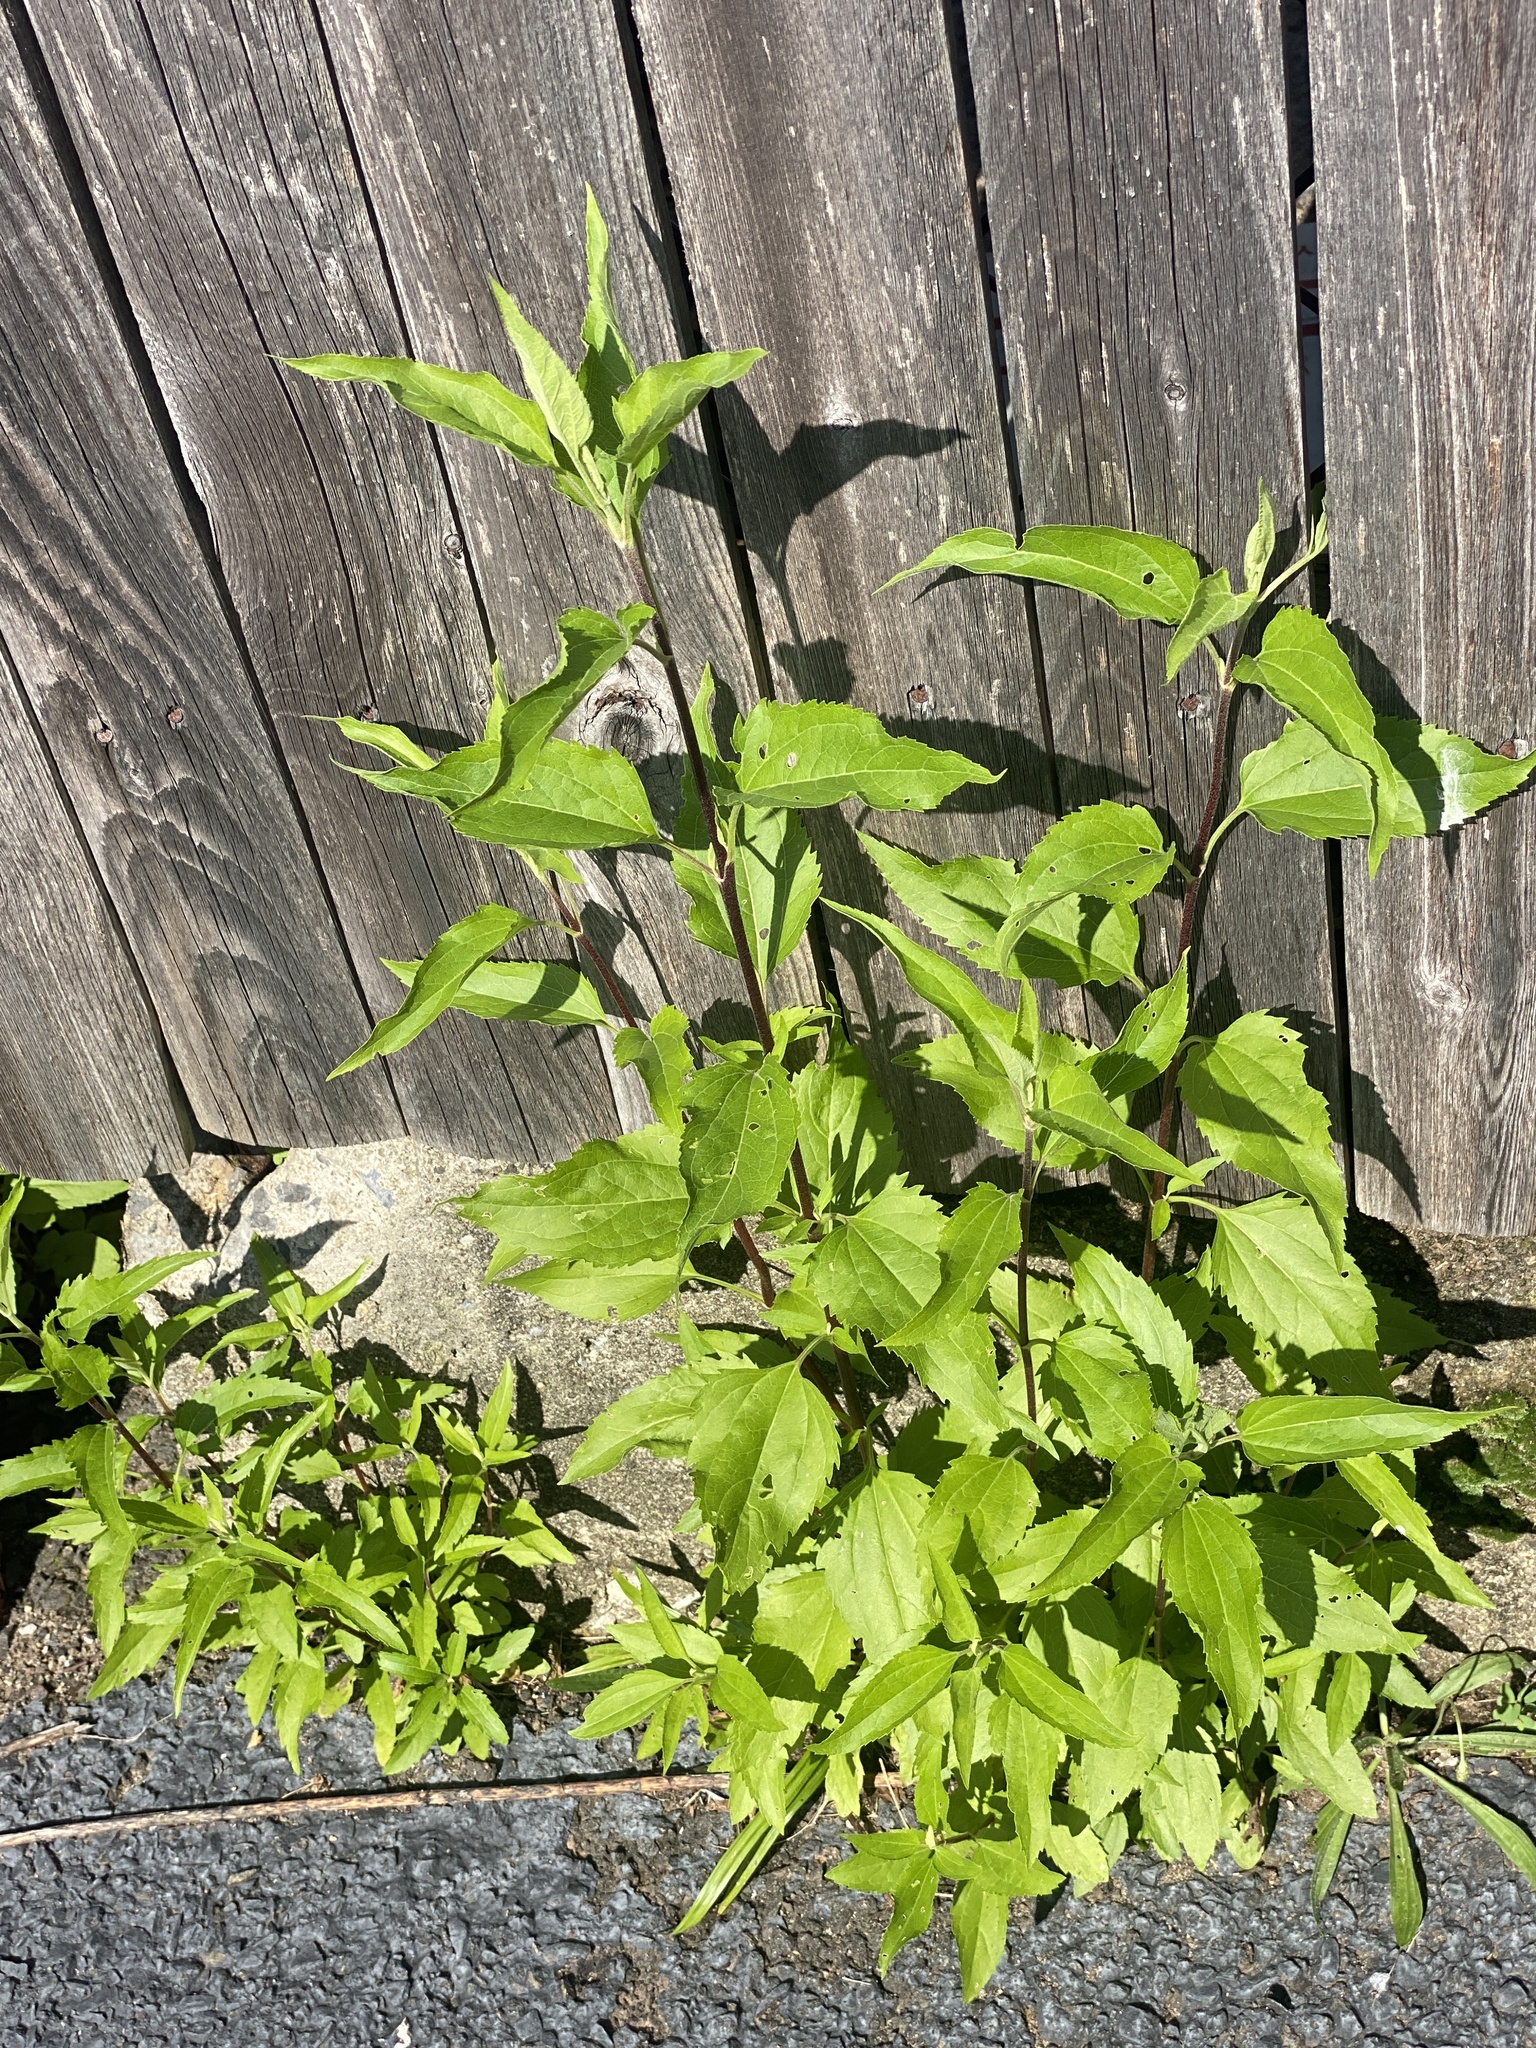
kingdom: Plantae
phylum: Tracheophyta
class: Magnoliopsida
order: Asterales
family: Asteraceae
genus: Eupatorium
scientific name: Eupatorium serotinum
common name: Late boneset
